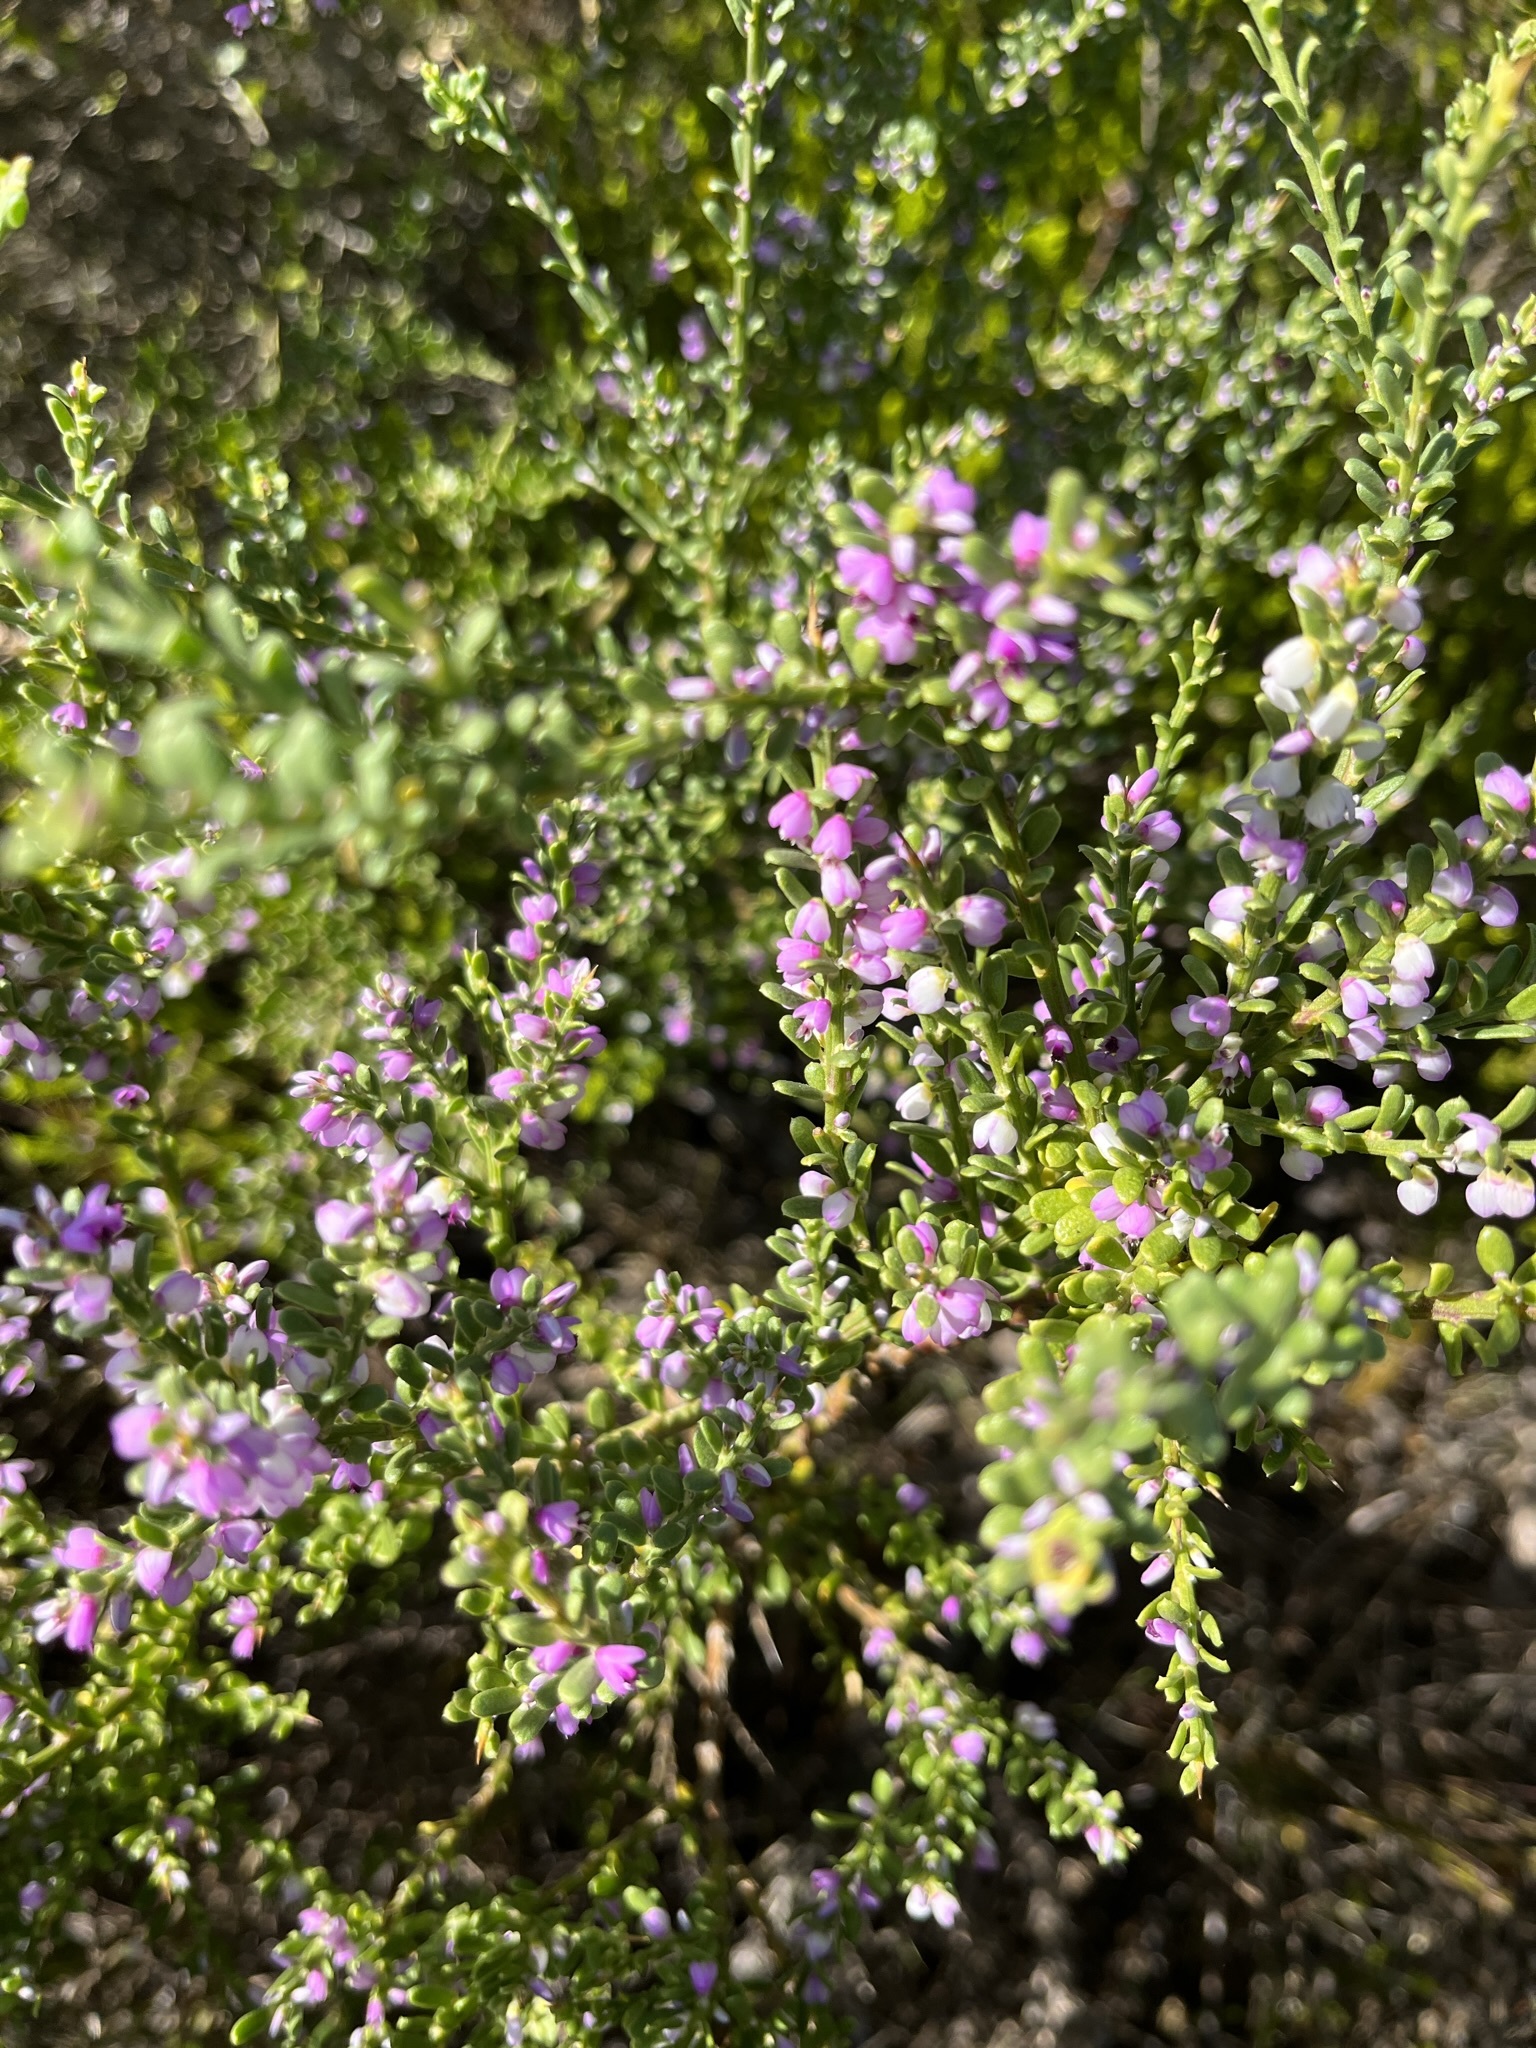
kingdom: Plantae
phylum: Tracheophyta
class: Magnoliopsida
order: Fabales
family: Polygalaceae
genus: Muraltia
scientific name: Muraltia spinosa
